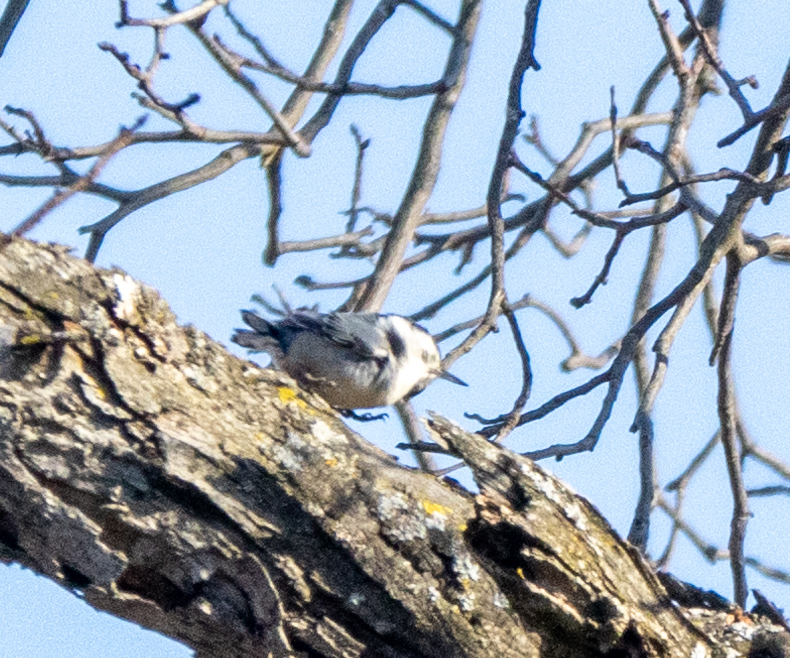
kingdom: Animalia
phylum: Chordata
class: Aves
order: Passeriformes
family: Sittidae
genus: Sitta
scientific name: Sitta carolinensis
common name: White-breasted nuthatch
